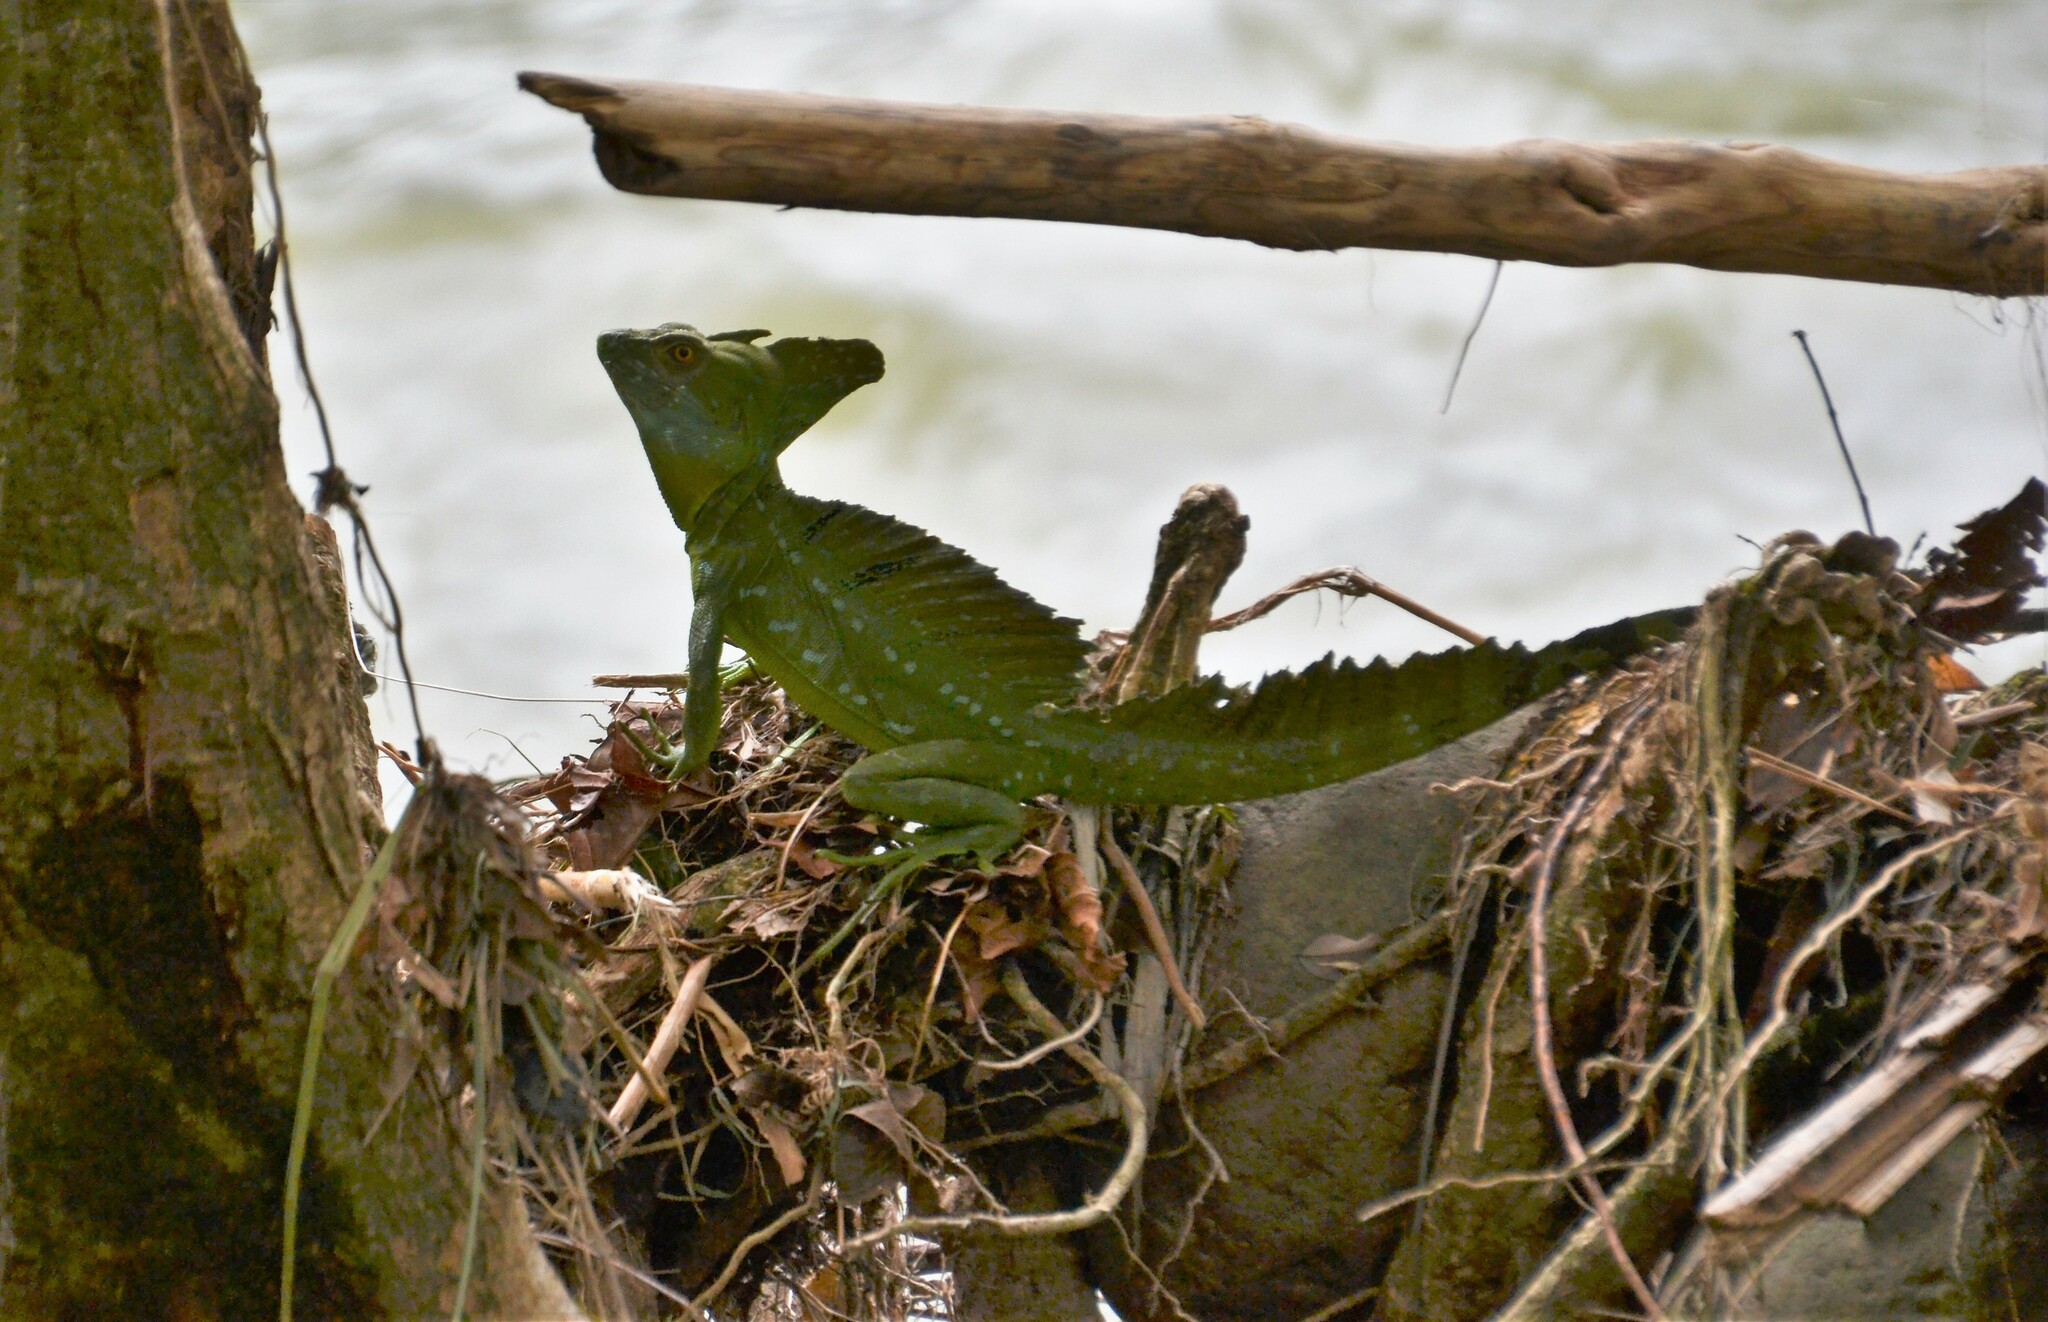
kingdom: Animalia
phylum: Chordata
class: Squamata
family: Corytophanidae
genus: Basiliscus
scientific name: Basiliscus plumifrons
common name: Green basilisk
